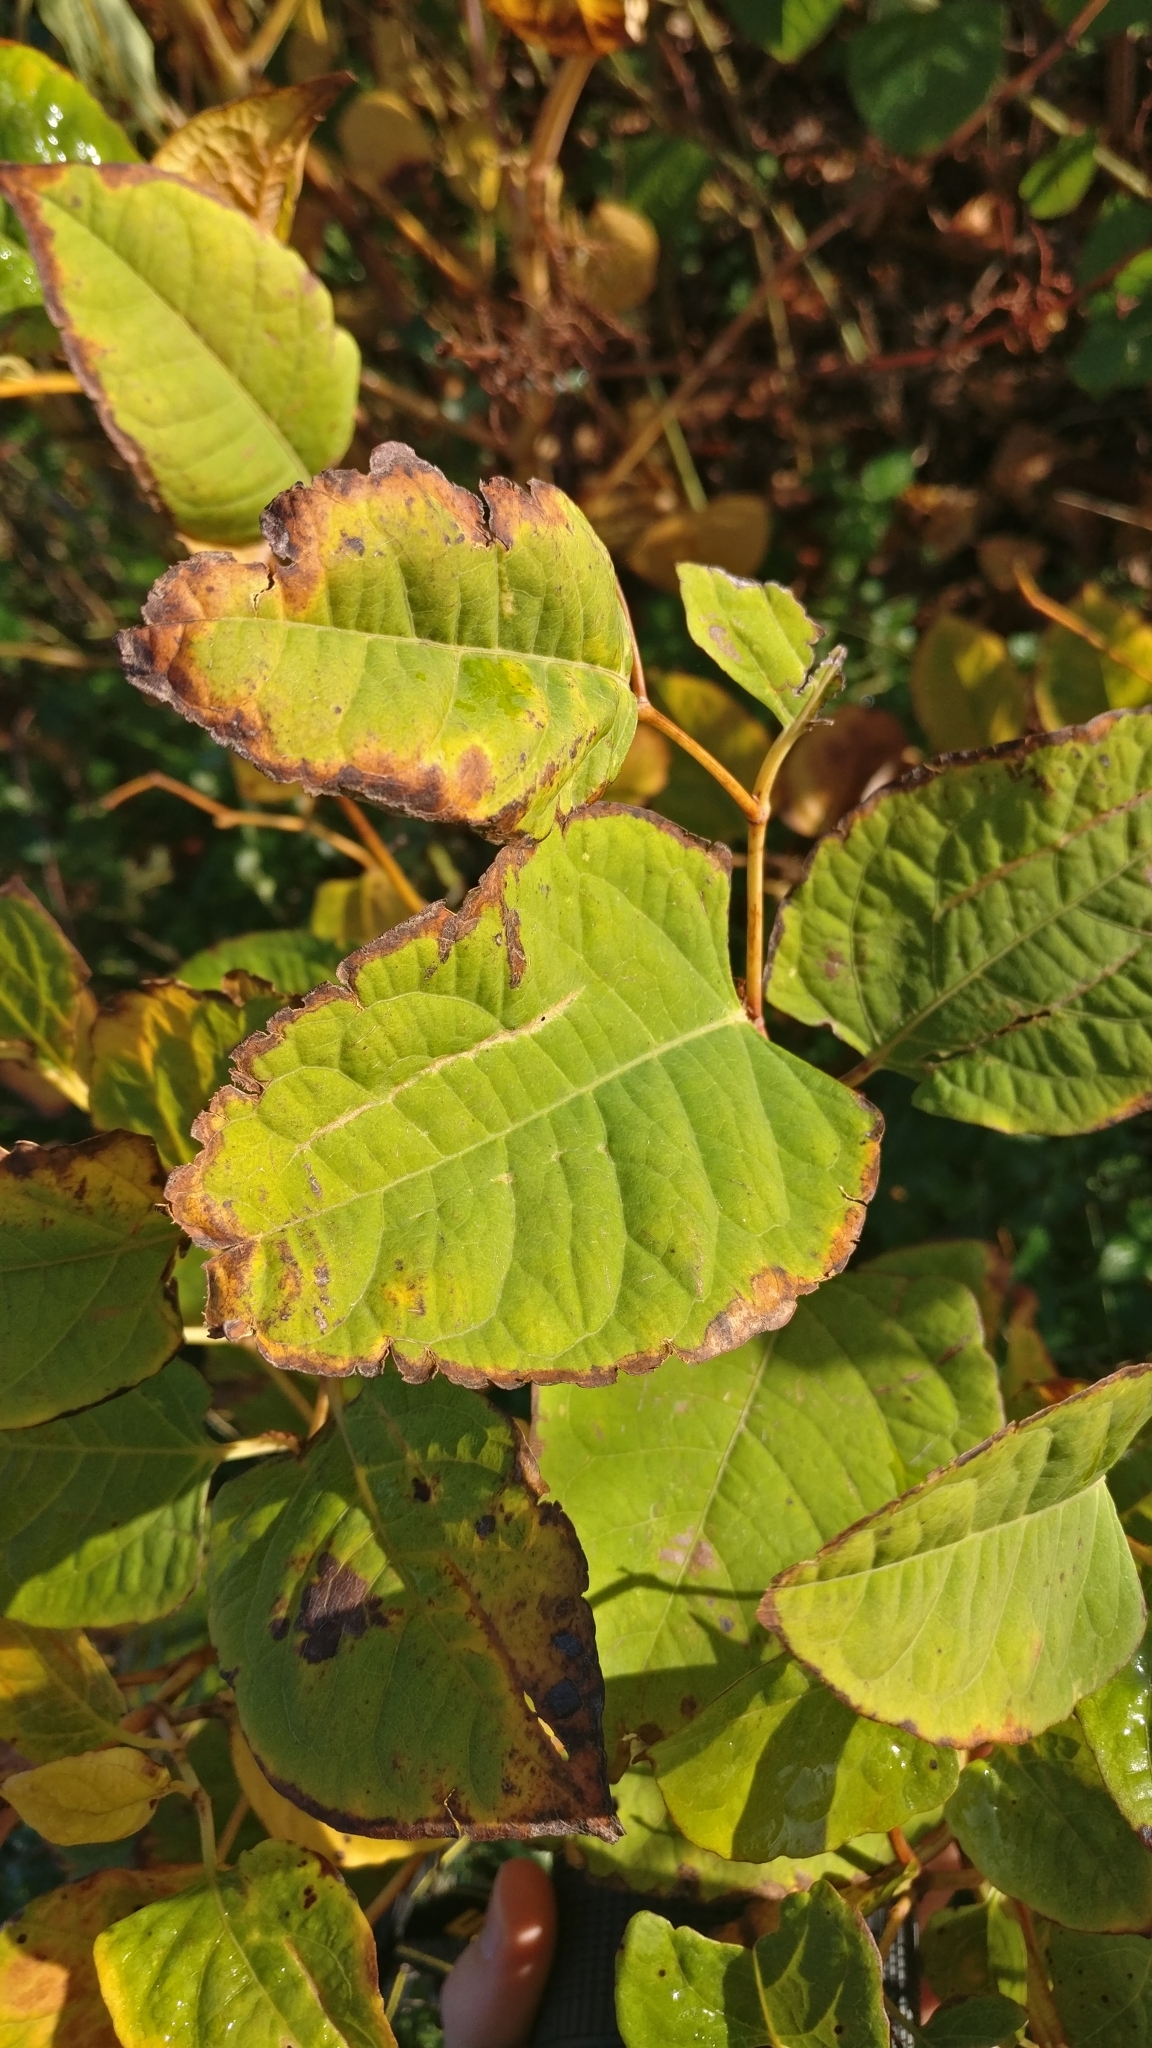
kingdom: Plantae
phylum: Tracheophyta
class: Magnoliopsida
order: Caryophyllales
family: Polygonaceae
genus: Reynoutria
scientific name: Reynoutria japonica
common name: Japanese knotweed
